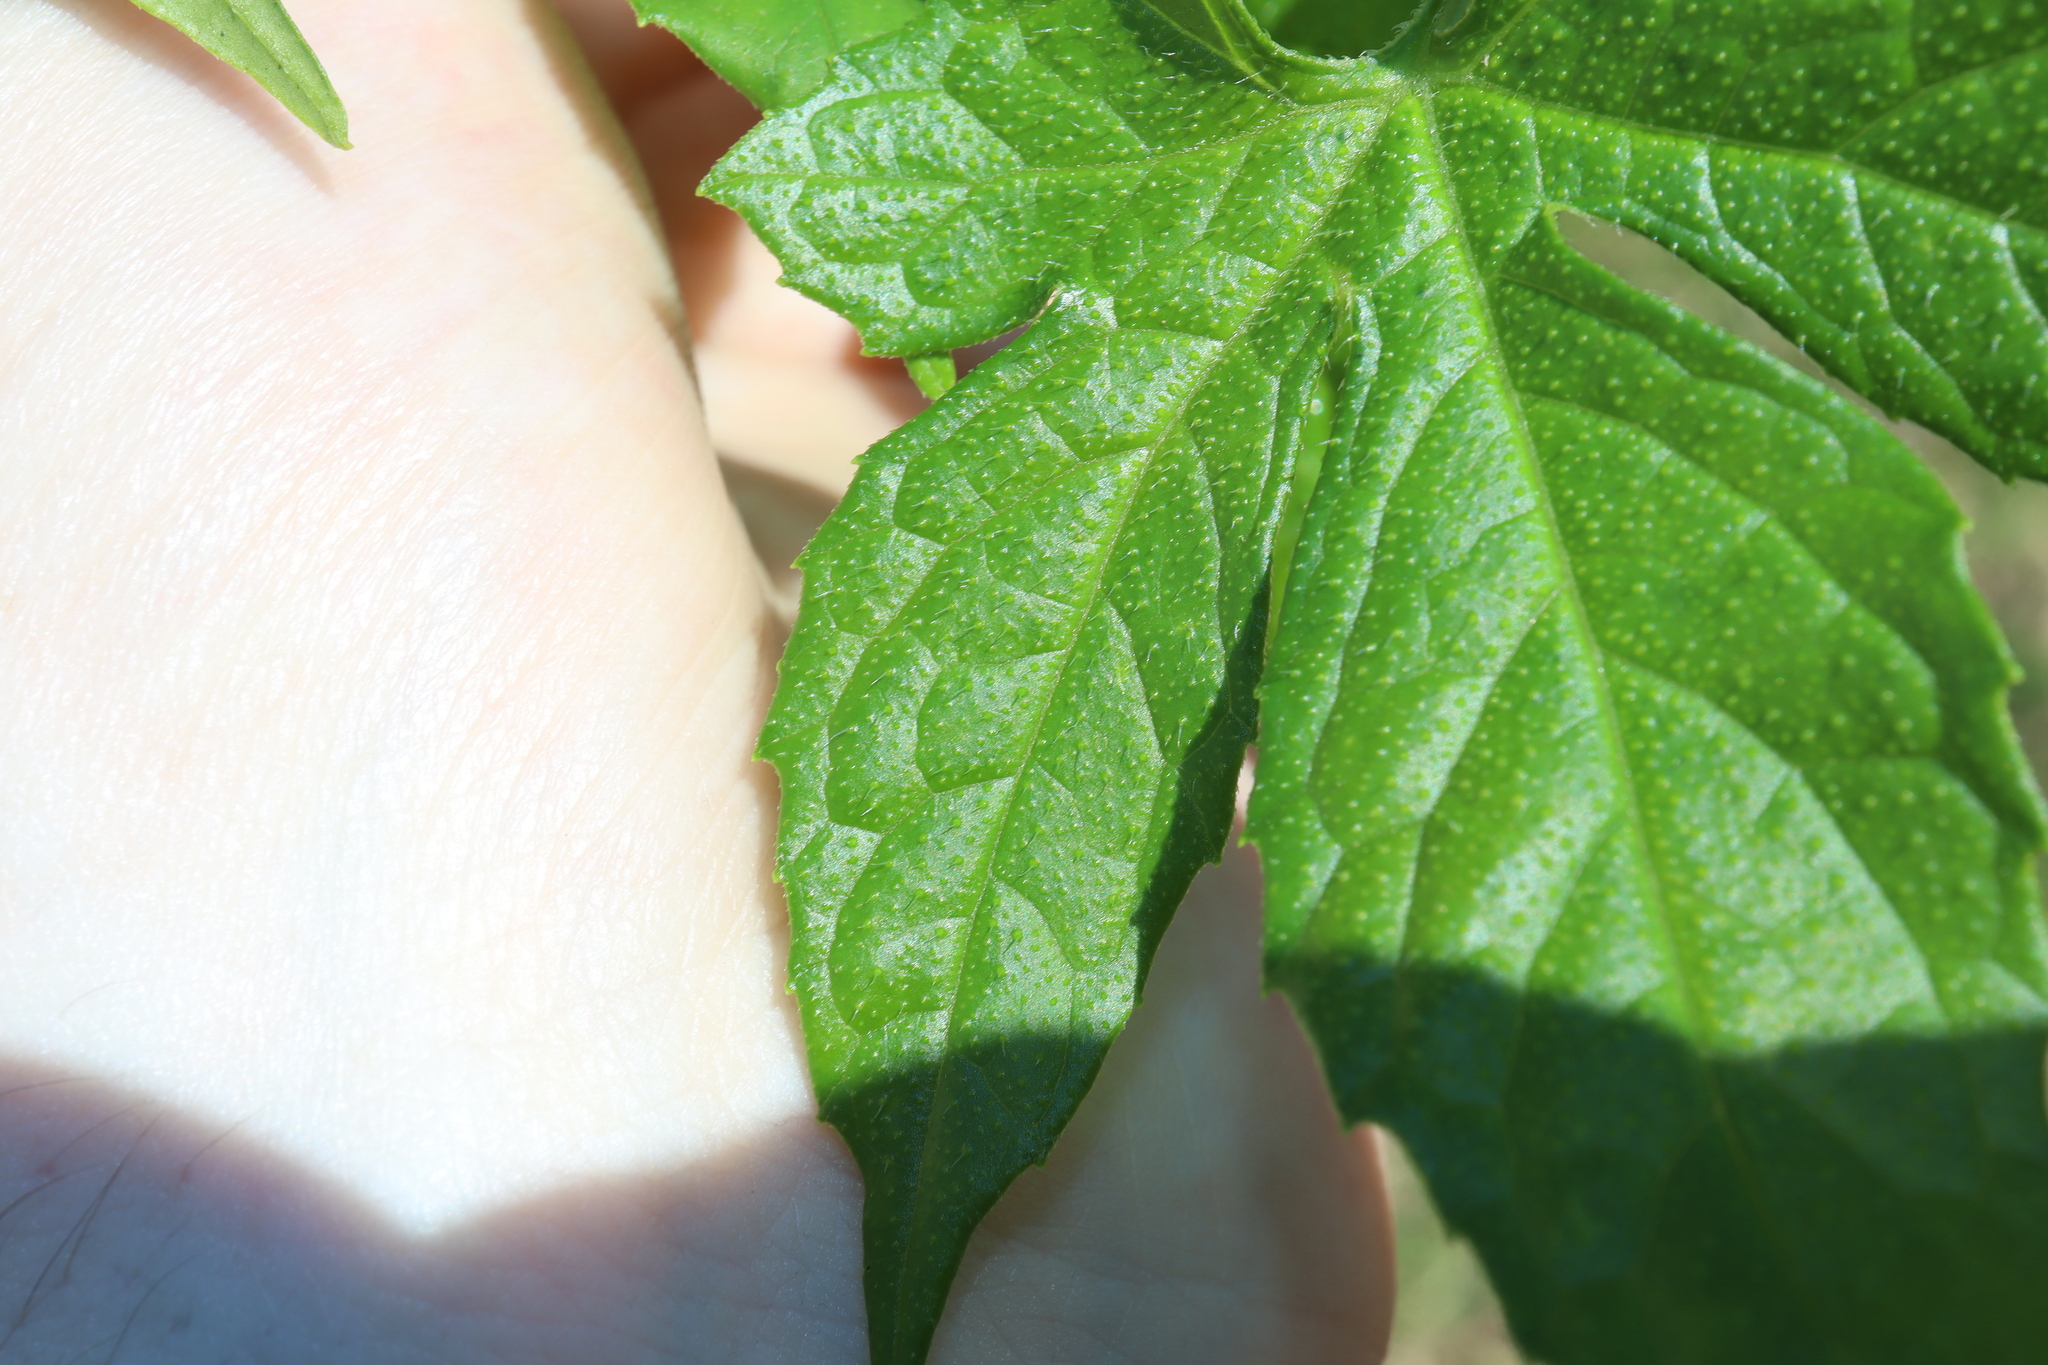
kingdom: Plantae
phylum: Tracheophyta
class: Magnoliopsida
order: Cucurbitales
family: Cucurbitaceae
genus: Diplocyclos
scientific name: Diplocyclos palmatus
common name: Striped-cucumber
